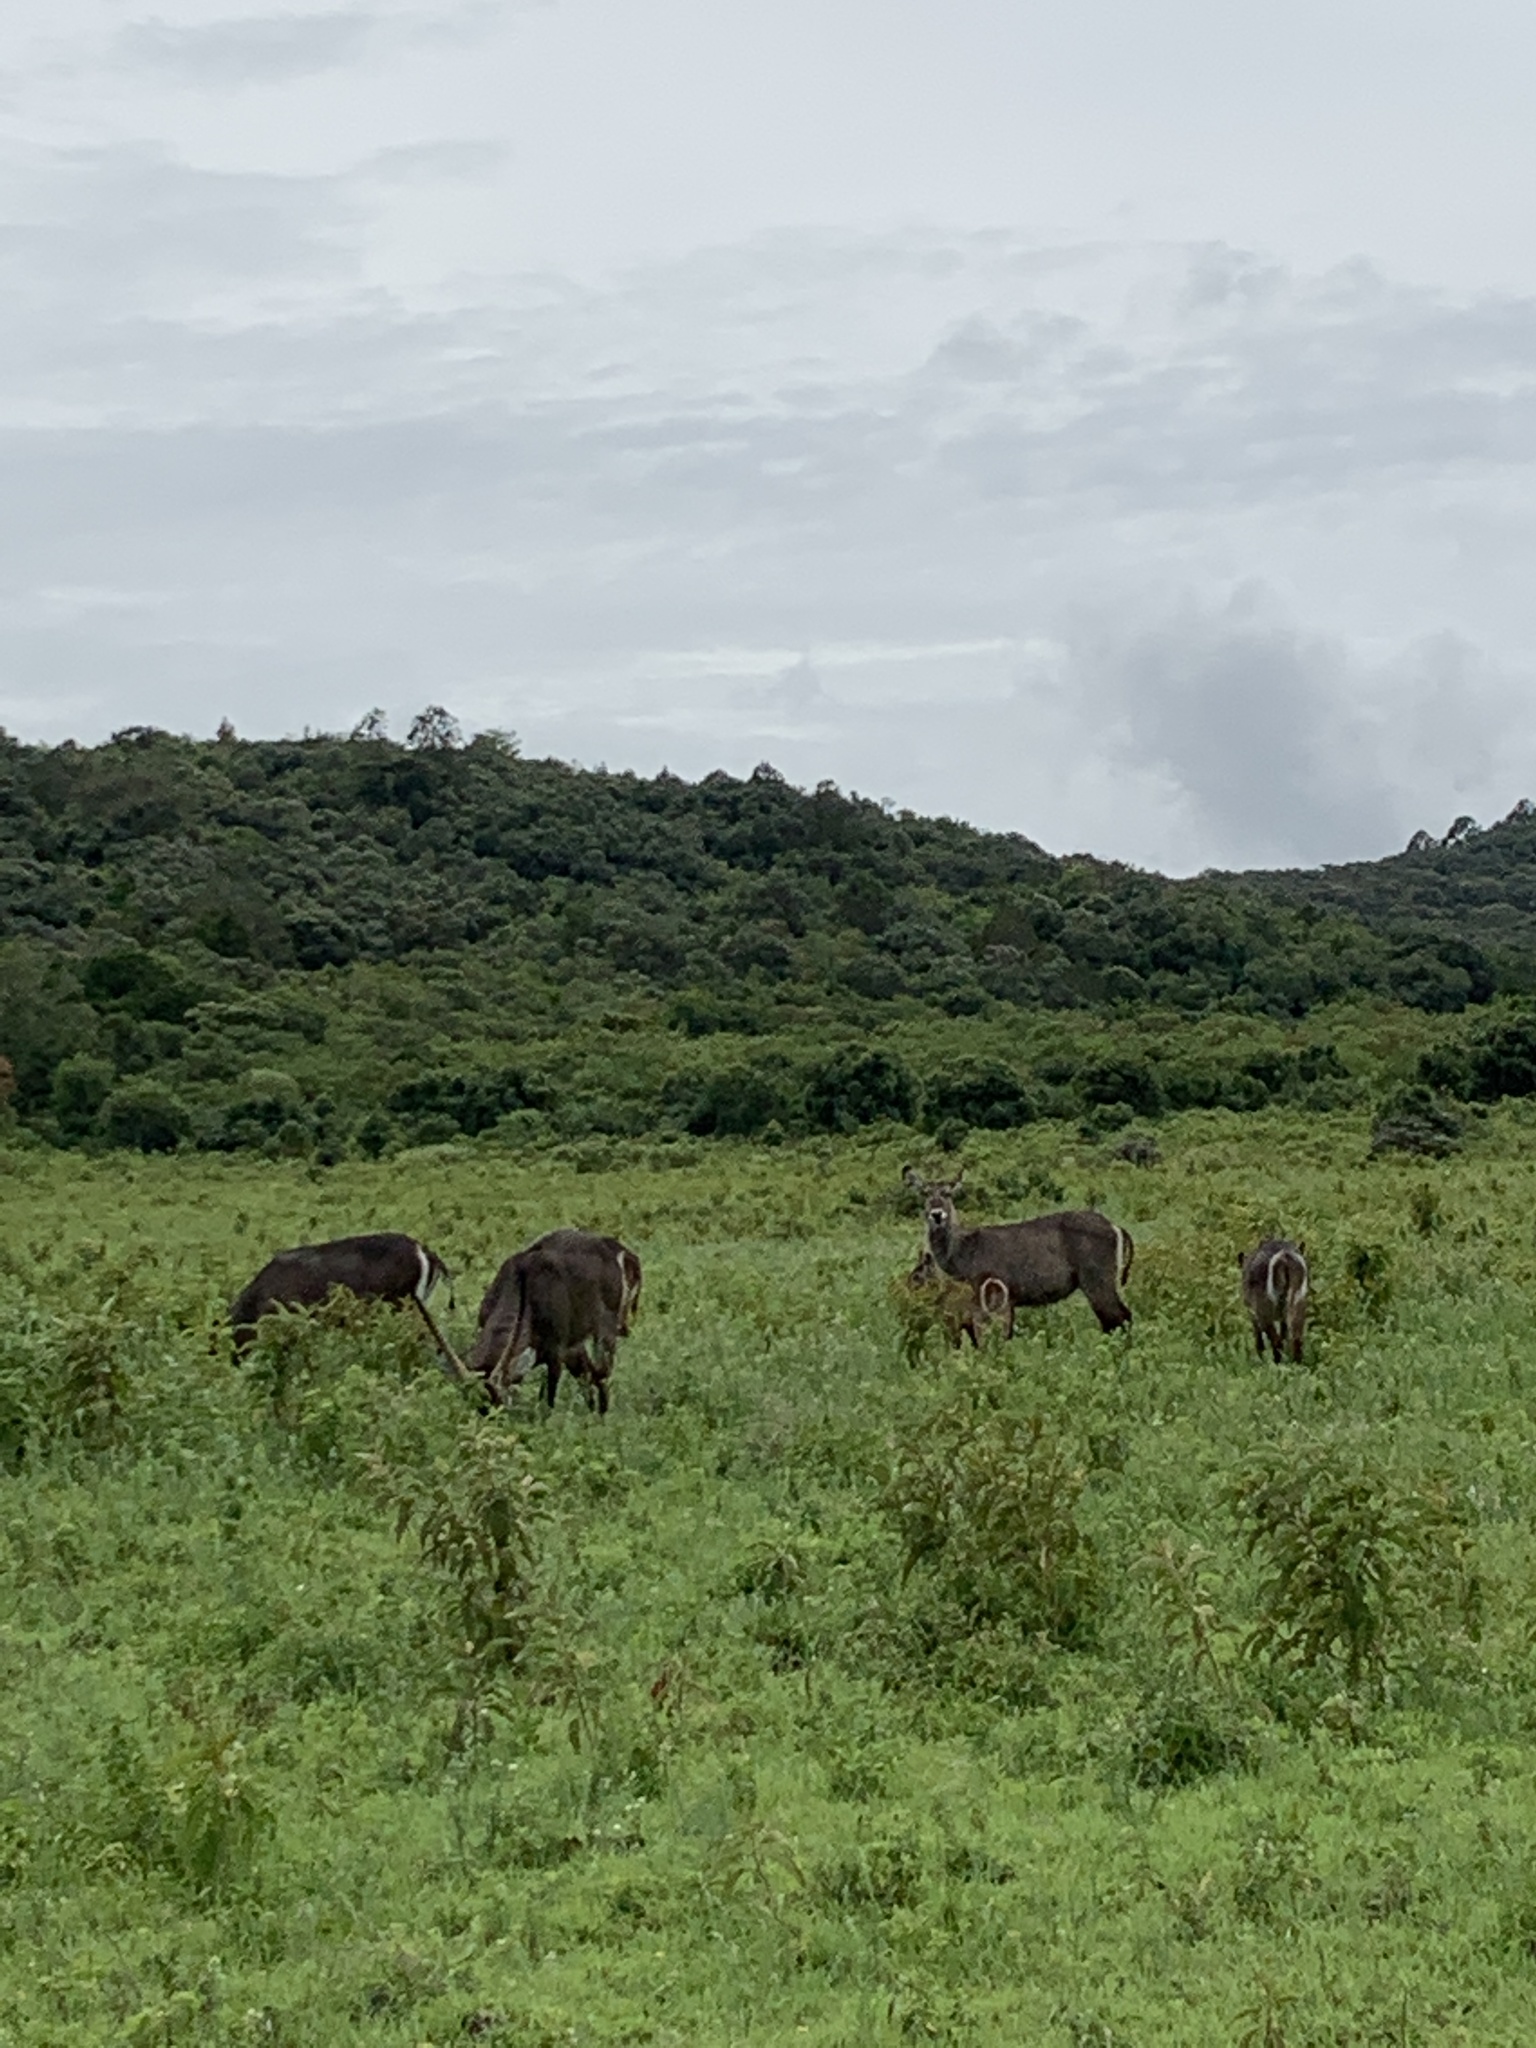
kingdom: Animalia
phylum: Chordata
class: Mammalia
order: Artiodactyla
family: Bovidae
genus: Kobus
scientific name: Kobus ellipsiprymnus
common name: Waterbuck
